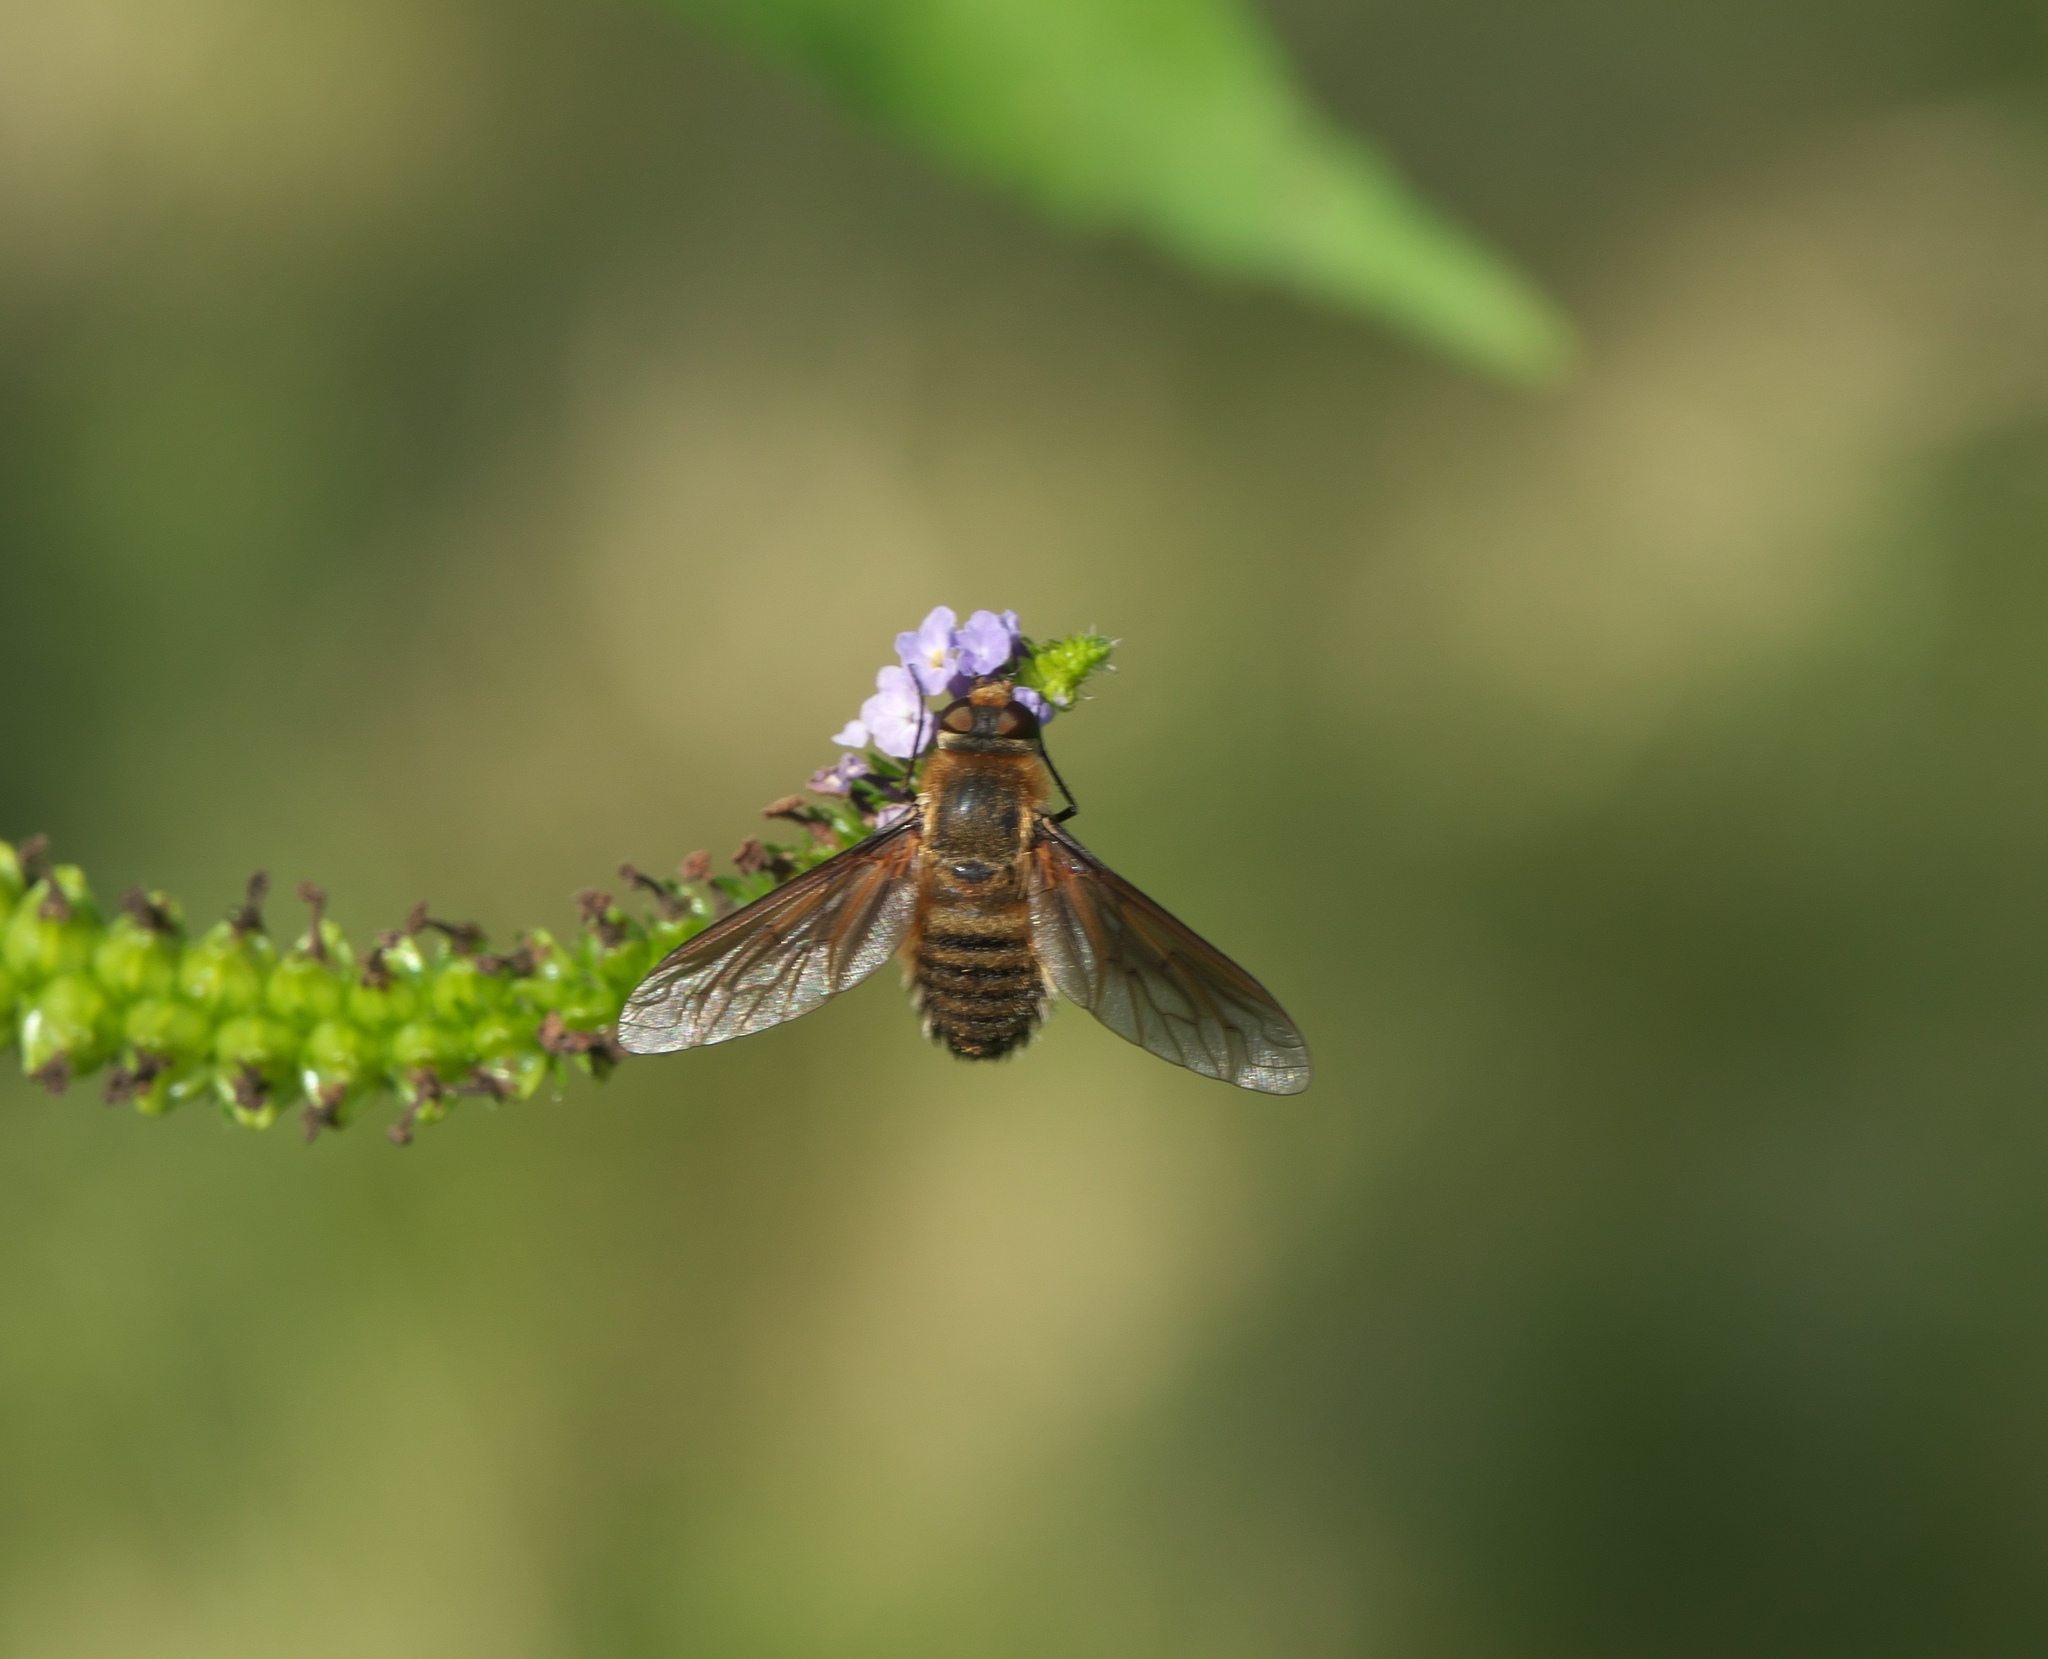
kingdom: Animalia
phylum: Arthropoda
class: Insecta
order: Diptera
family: Bombyliidae
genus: Poecilanthrax
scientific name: Poecilanthrax lucifer
